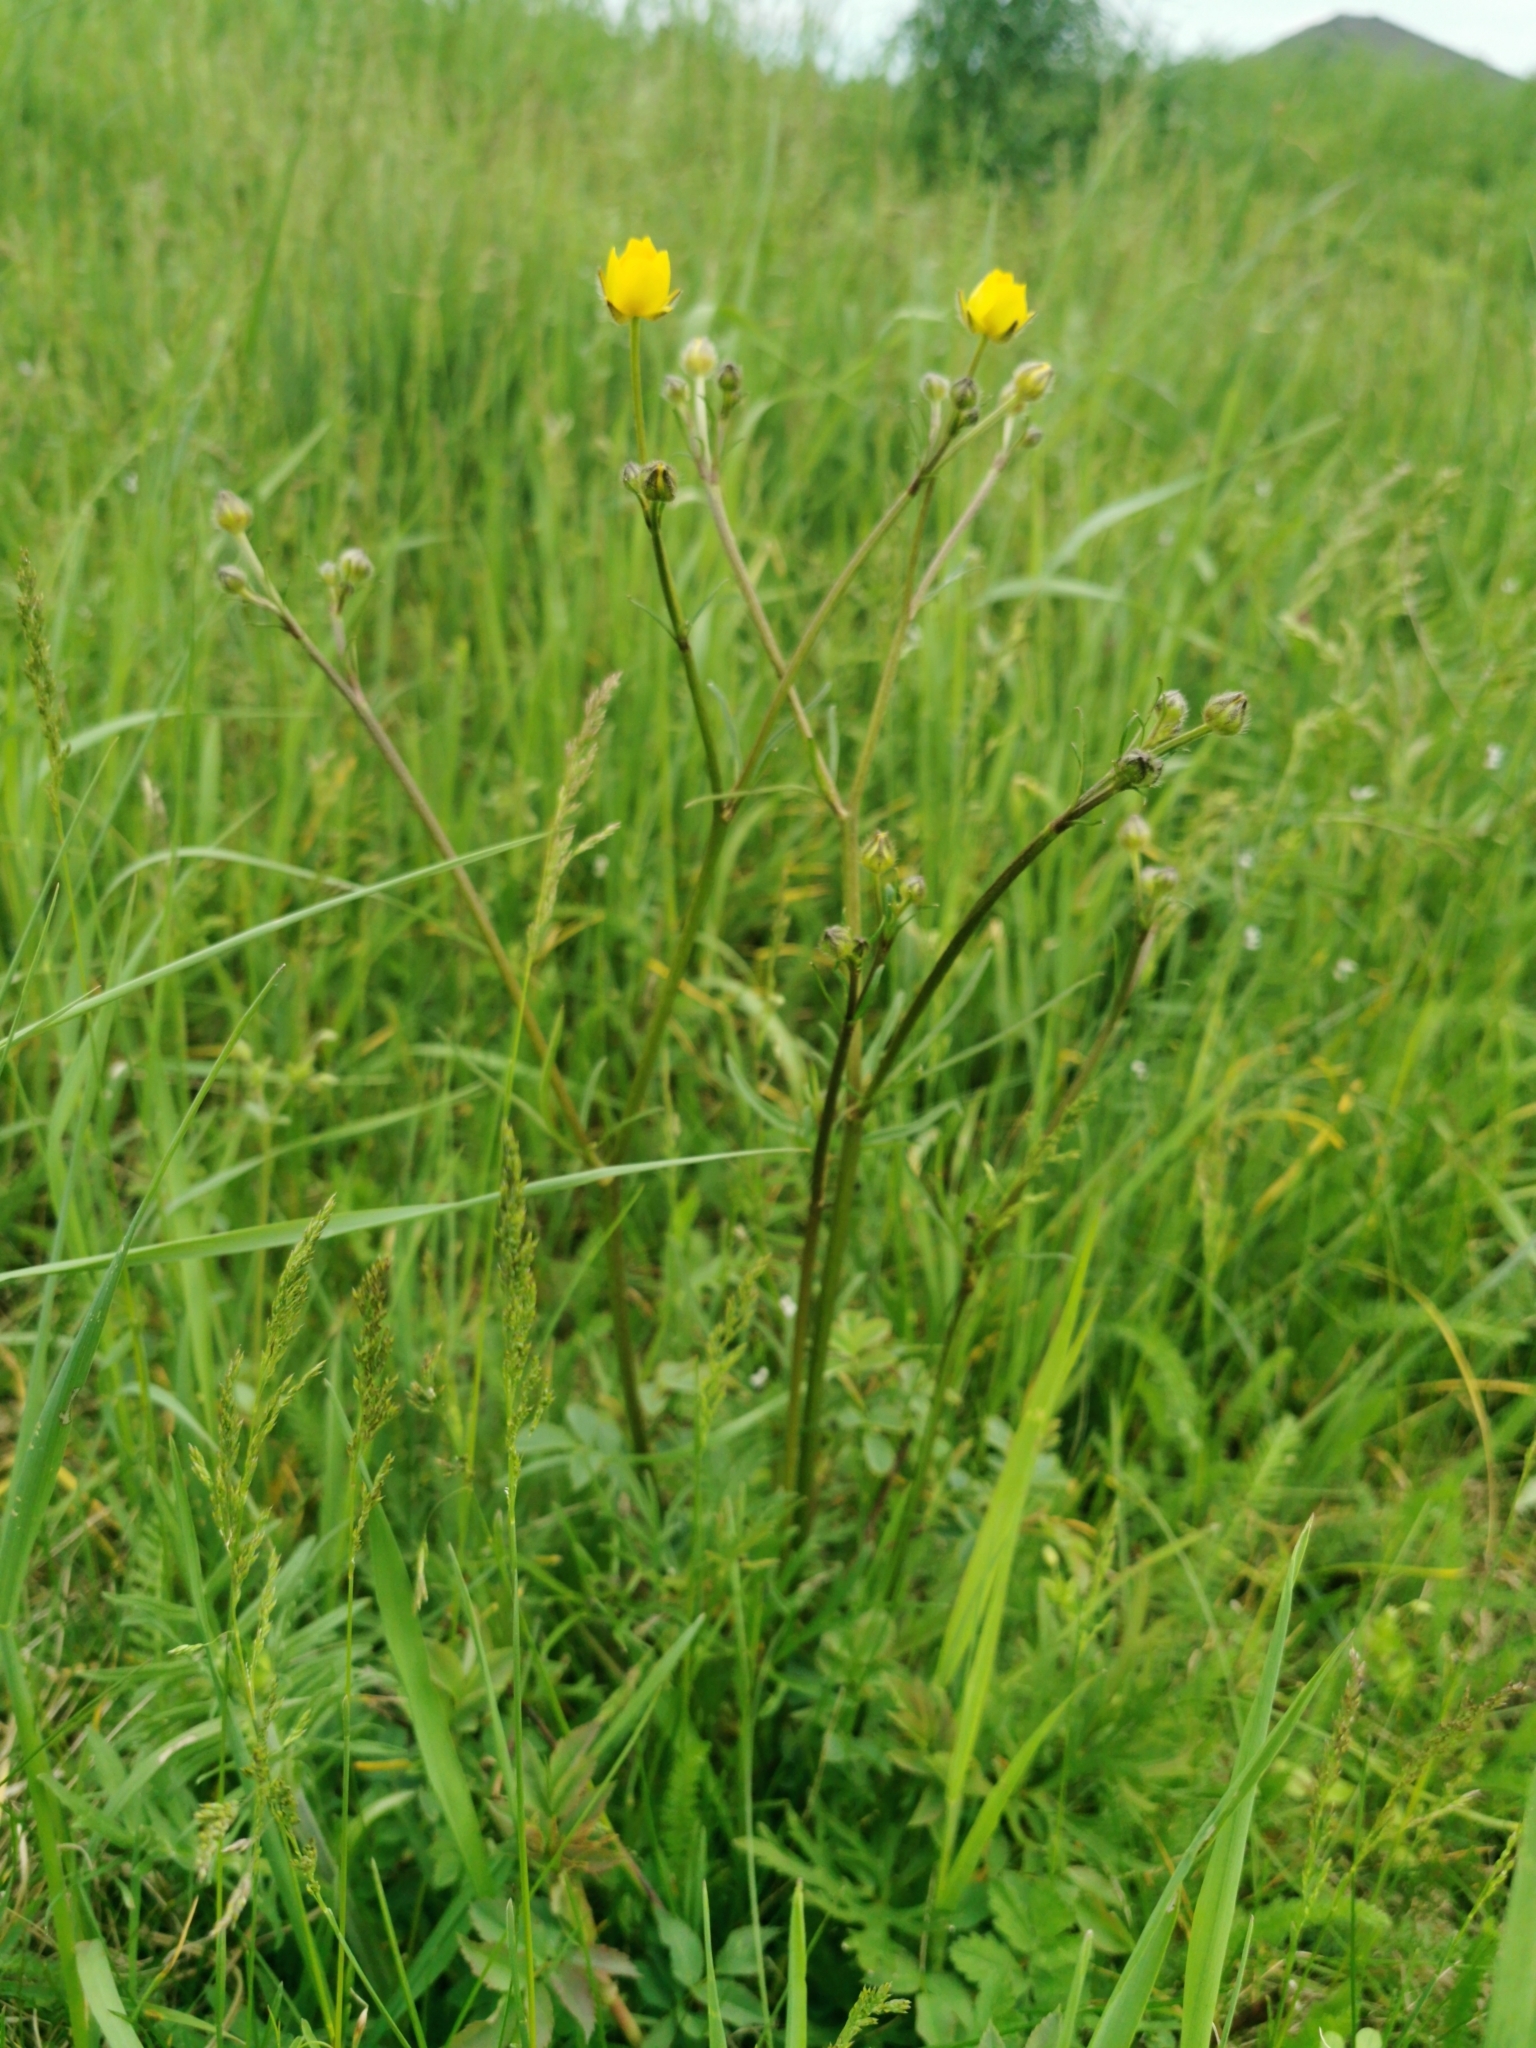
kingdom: Plantae
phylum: Tracheophyta
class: Magnoliopsida
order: Ranunculales
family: Ranunculaceae
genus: Ranunculus
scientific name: Ranunculus polyanthemos
